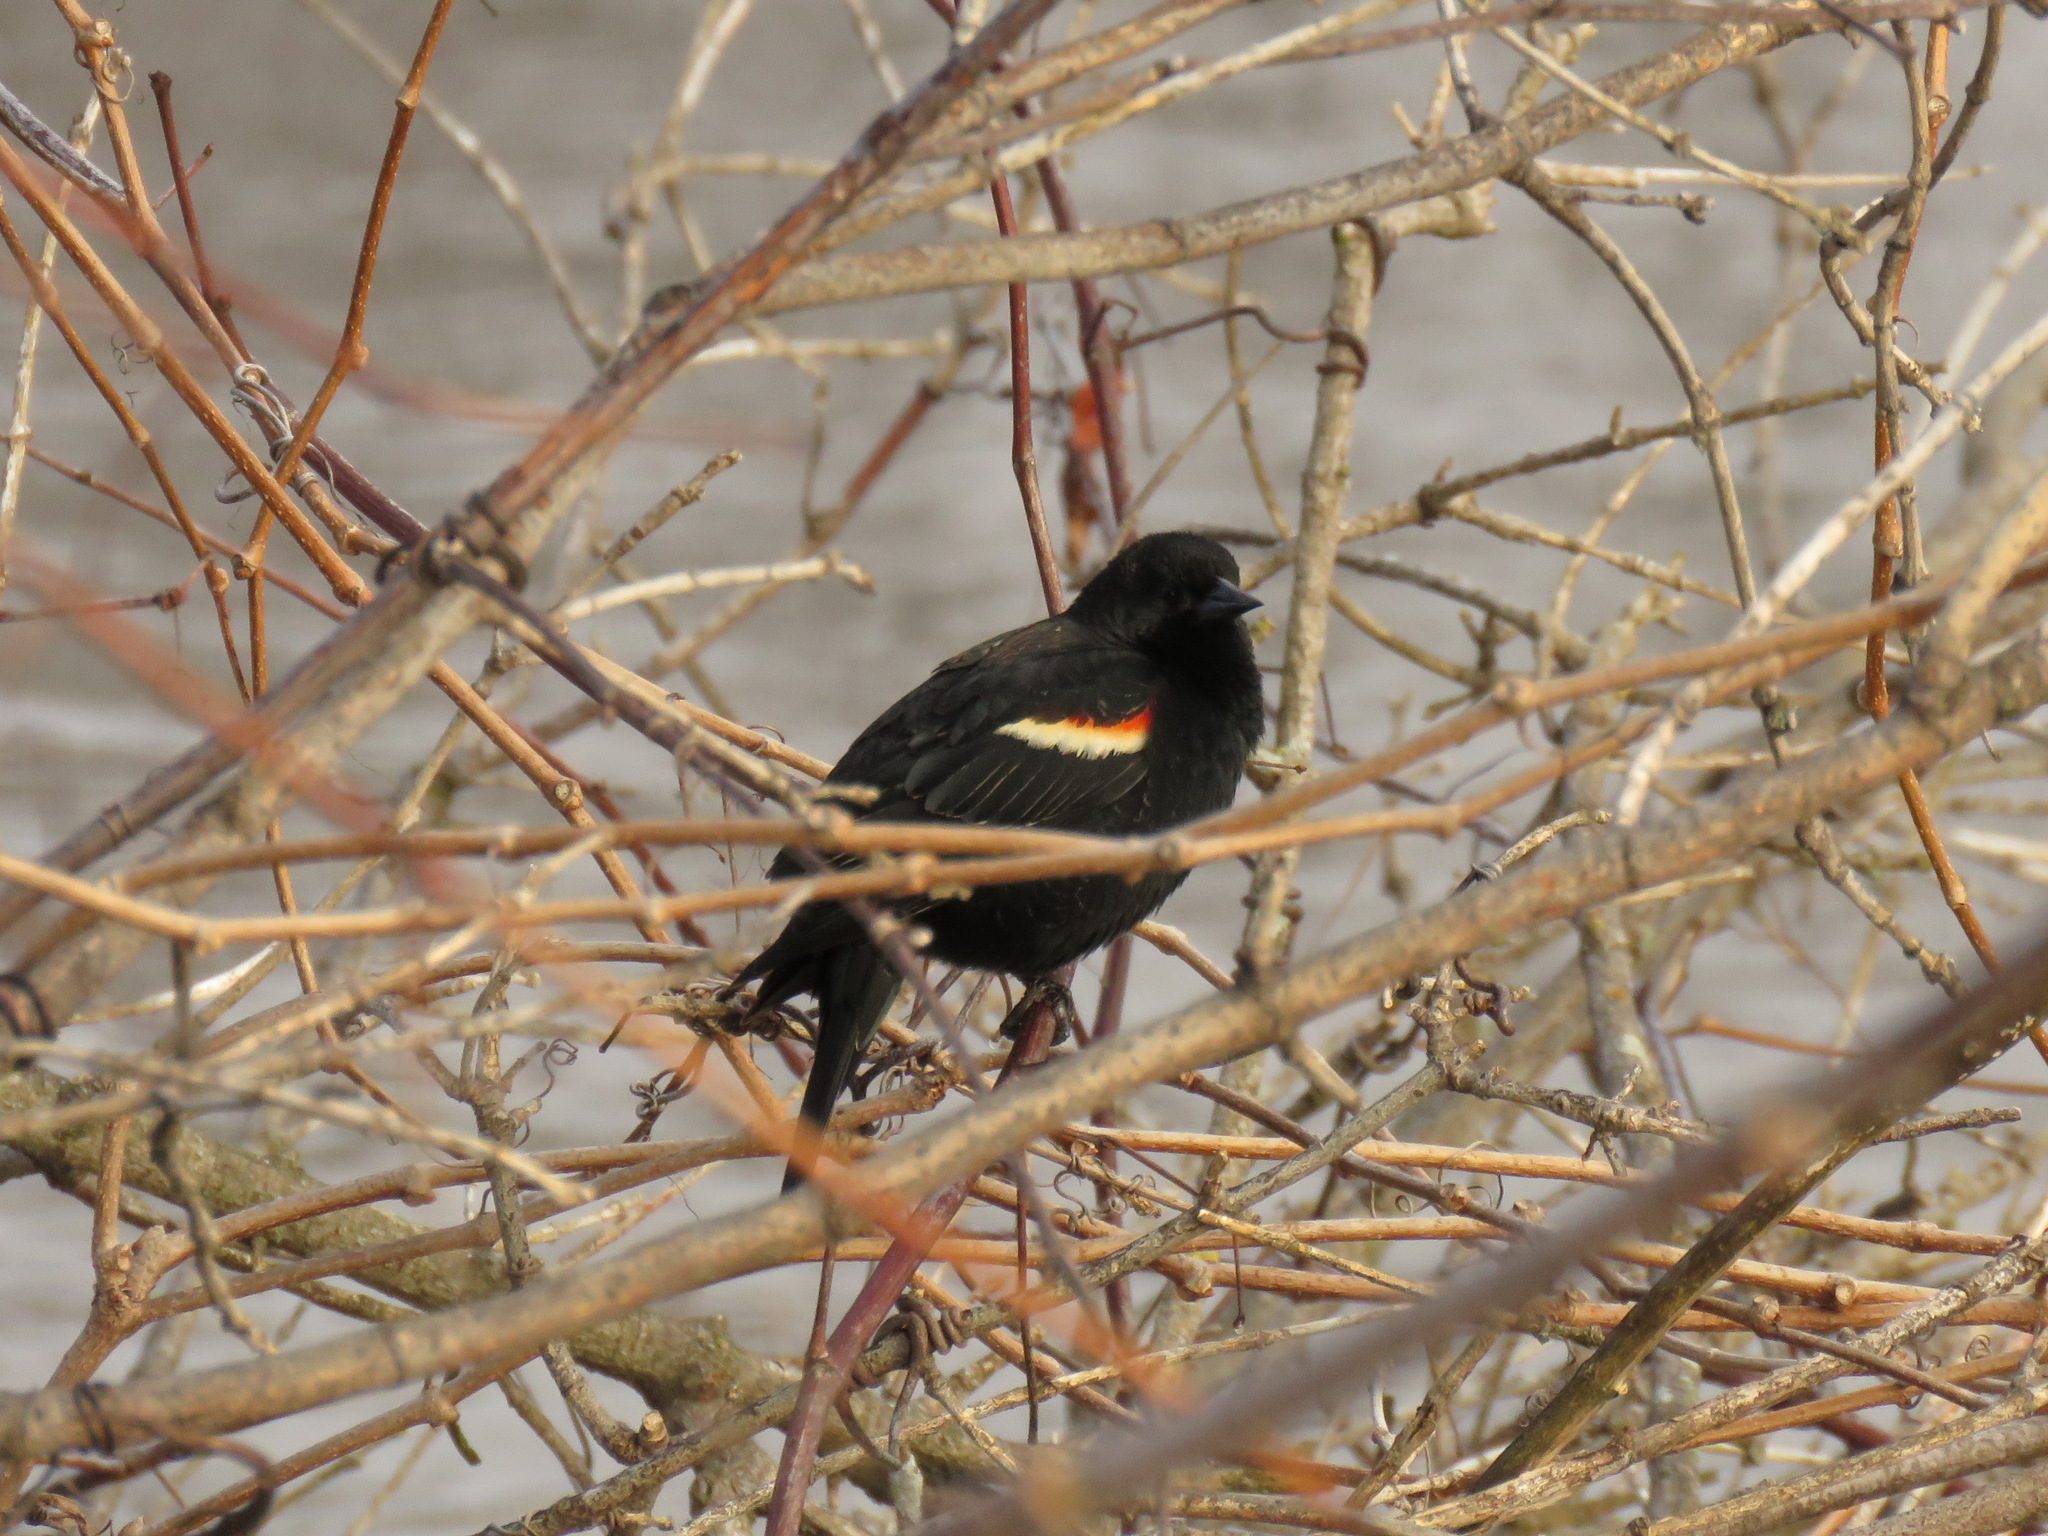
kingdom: Animalia
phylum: Chordata
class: Aves
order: Passeriformes
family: Icteridae
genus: Agelaius
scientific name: Agelaius phoeniceus
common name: Red-winged blackbird
